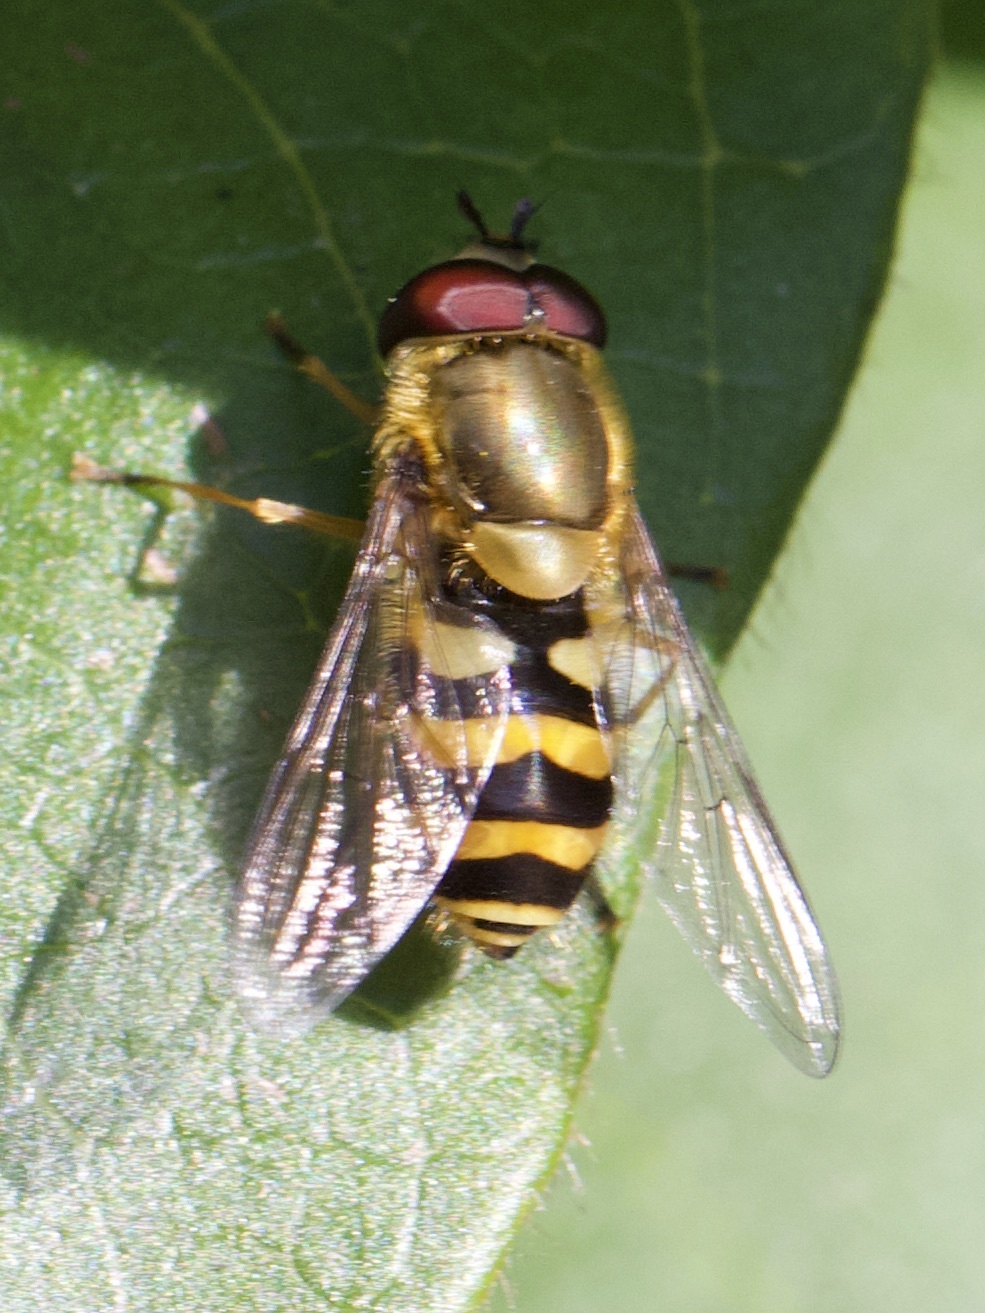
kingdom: Animalia
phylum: Arthropoda
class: Insecta
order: Diptera
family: Syrphidae
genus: Syrphus
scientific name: Syrphus
